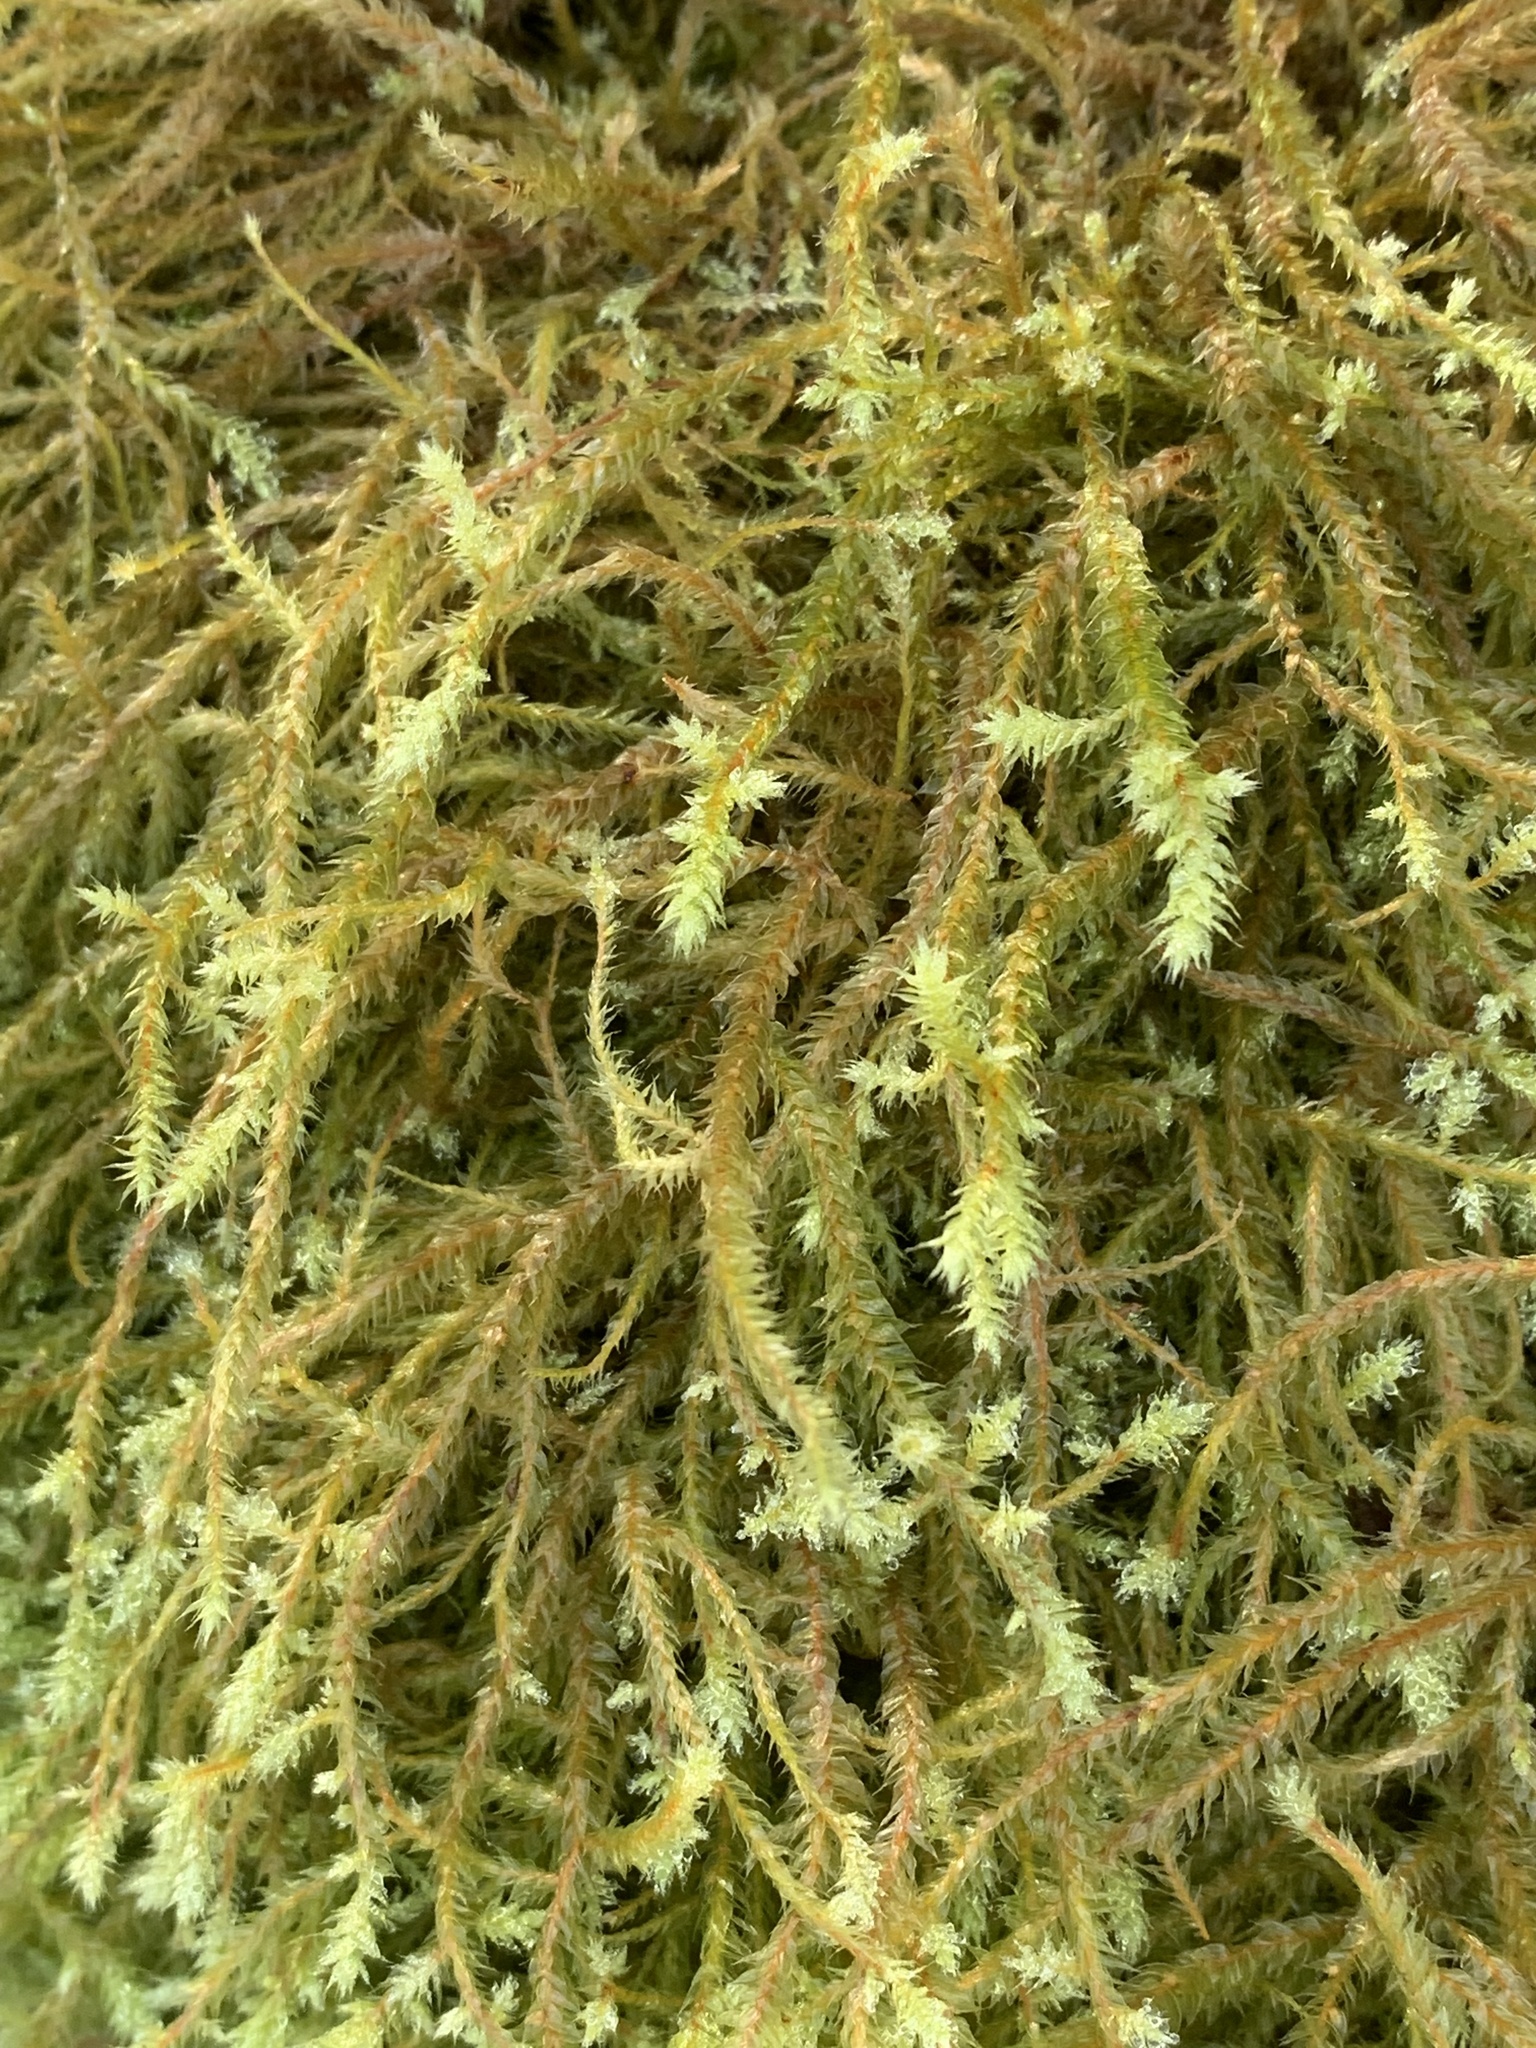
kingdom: Plantae
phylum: Bryophyta
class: Bryopsida
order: Hypnales
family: Hylocomiaceae
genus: Hylocomiadelphus
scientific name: Hylocomiadelphus triquetrus
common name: Rough goose neck moss
